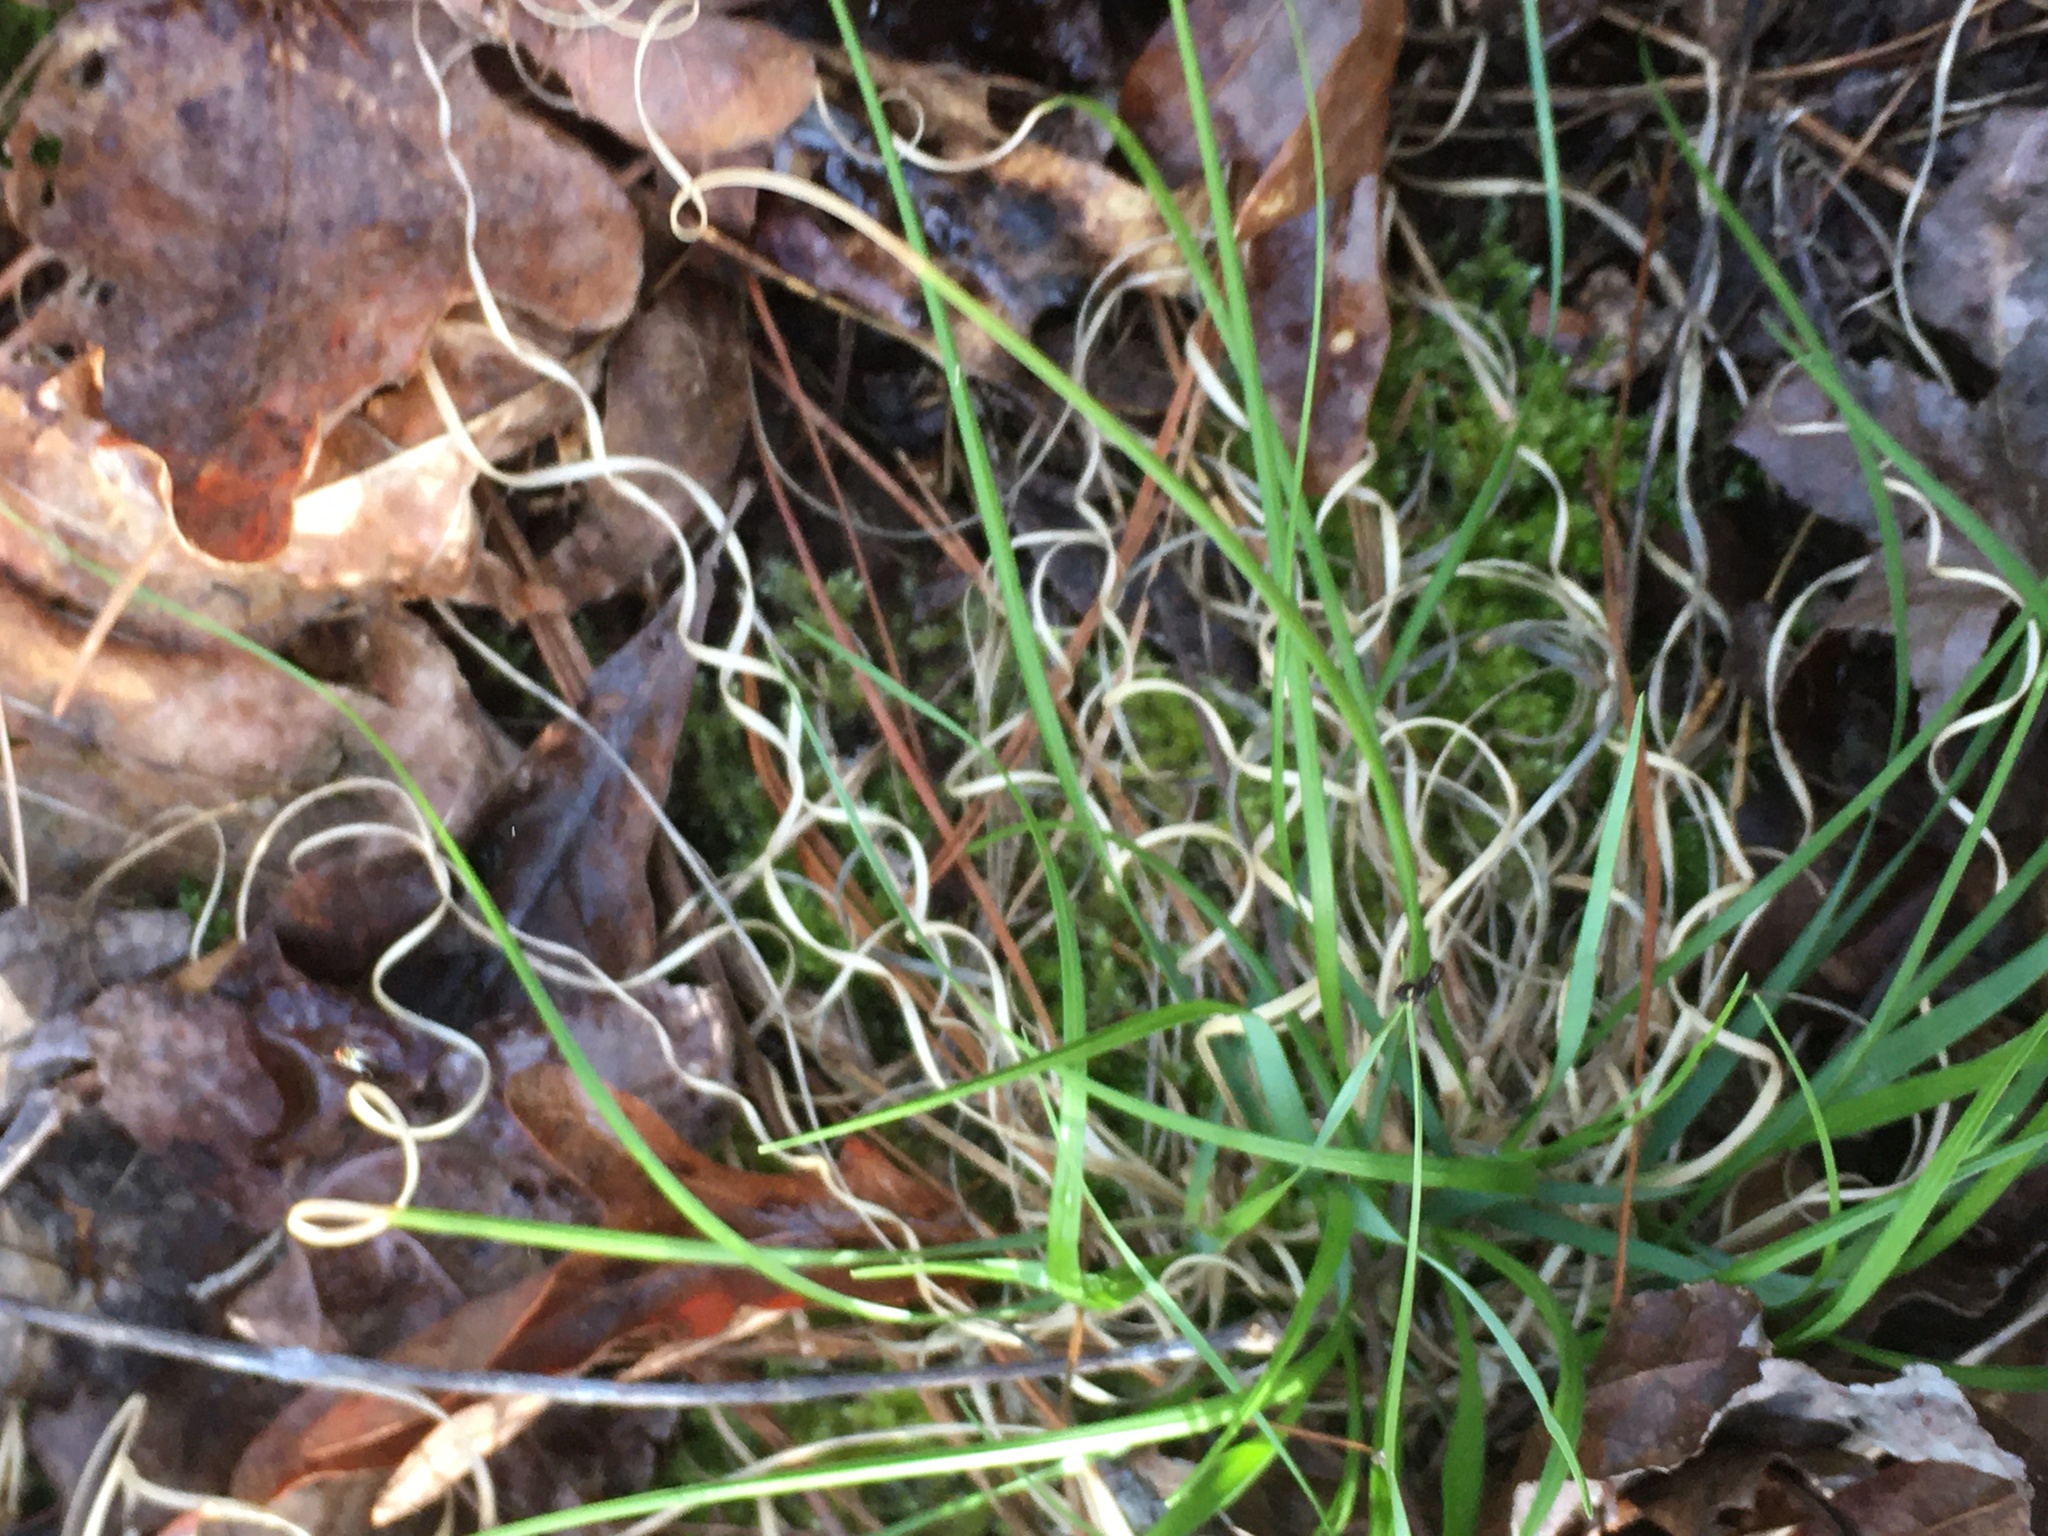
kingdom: Plantae
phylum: Tracheophyta
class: Liliopsida
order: Poales
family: Poaceae
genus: Danthonia
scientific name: Danthonia spicata
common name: Common wild oatgrass
